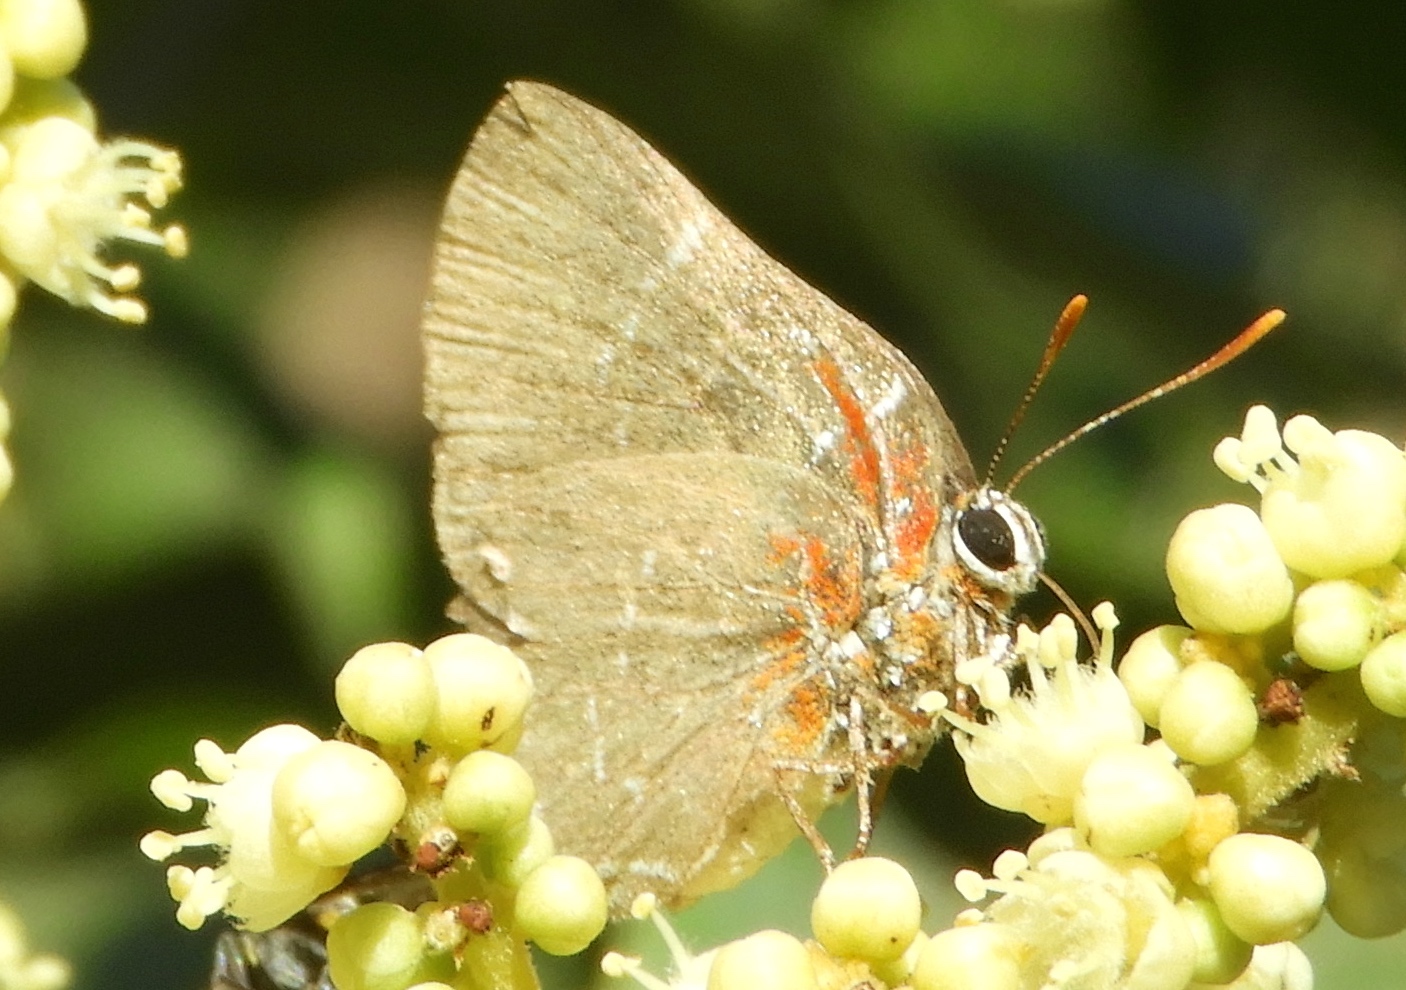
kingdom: Animalia
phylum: Arthropoda
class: Insecta
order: Lepidoptera
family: Lycaenidae
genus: Atlides
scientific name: Atlides Brangas neora
